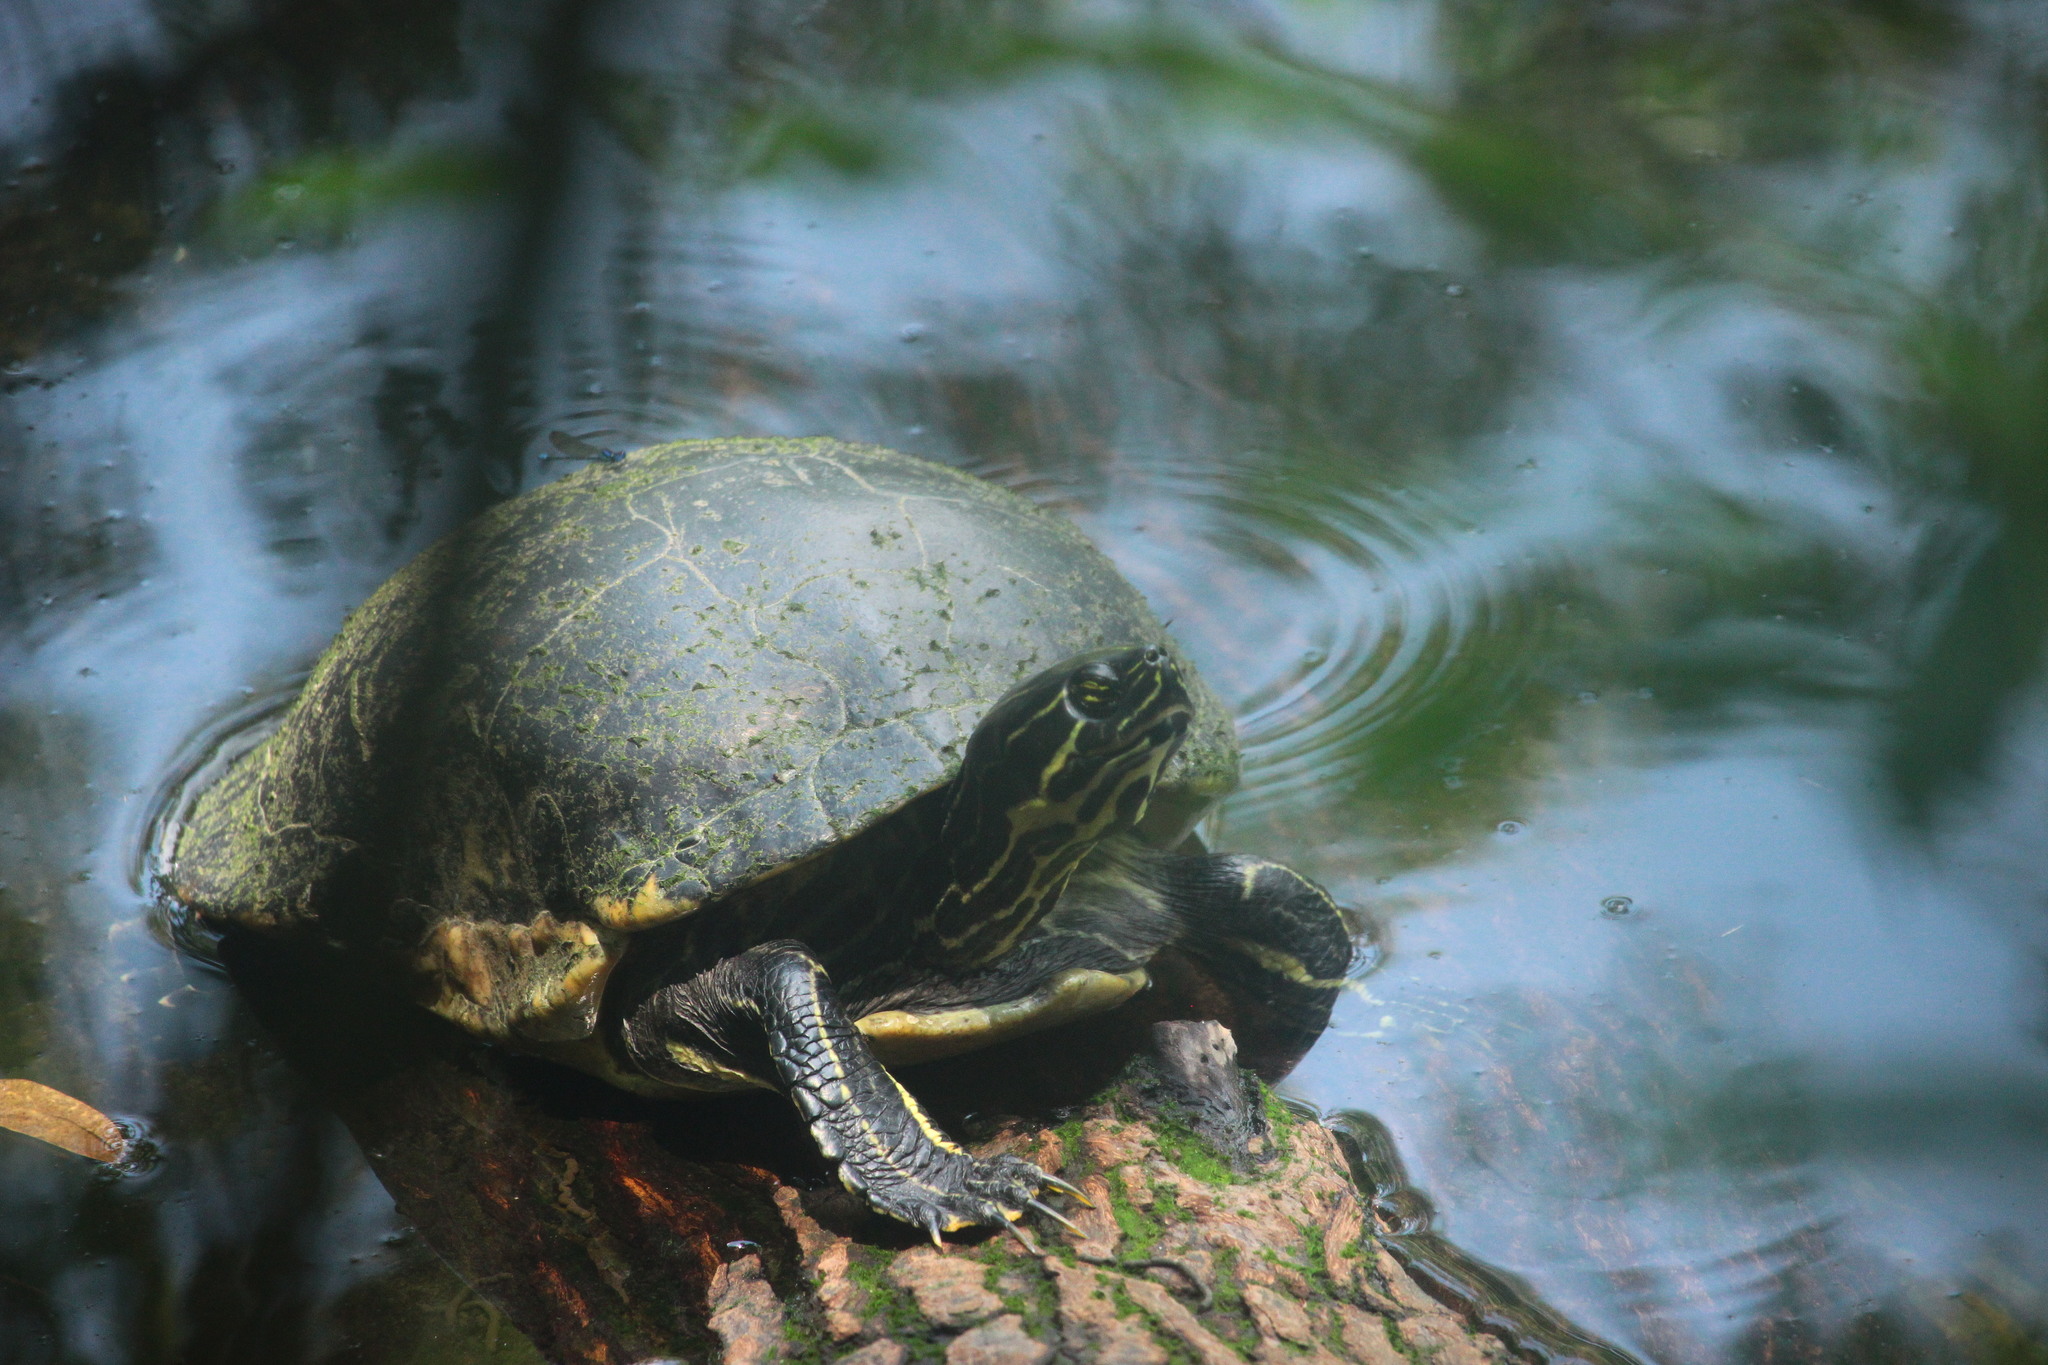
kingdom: Animalia
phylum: Chordata
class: Testudines
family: Emydidae
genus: Pseudemys
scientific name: Pseudemys nelsoni
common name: Florida red-bellied turtle
